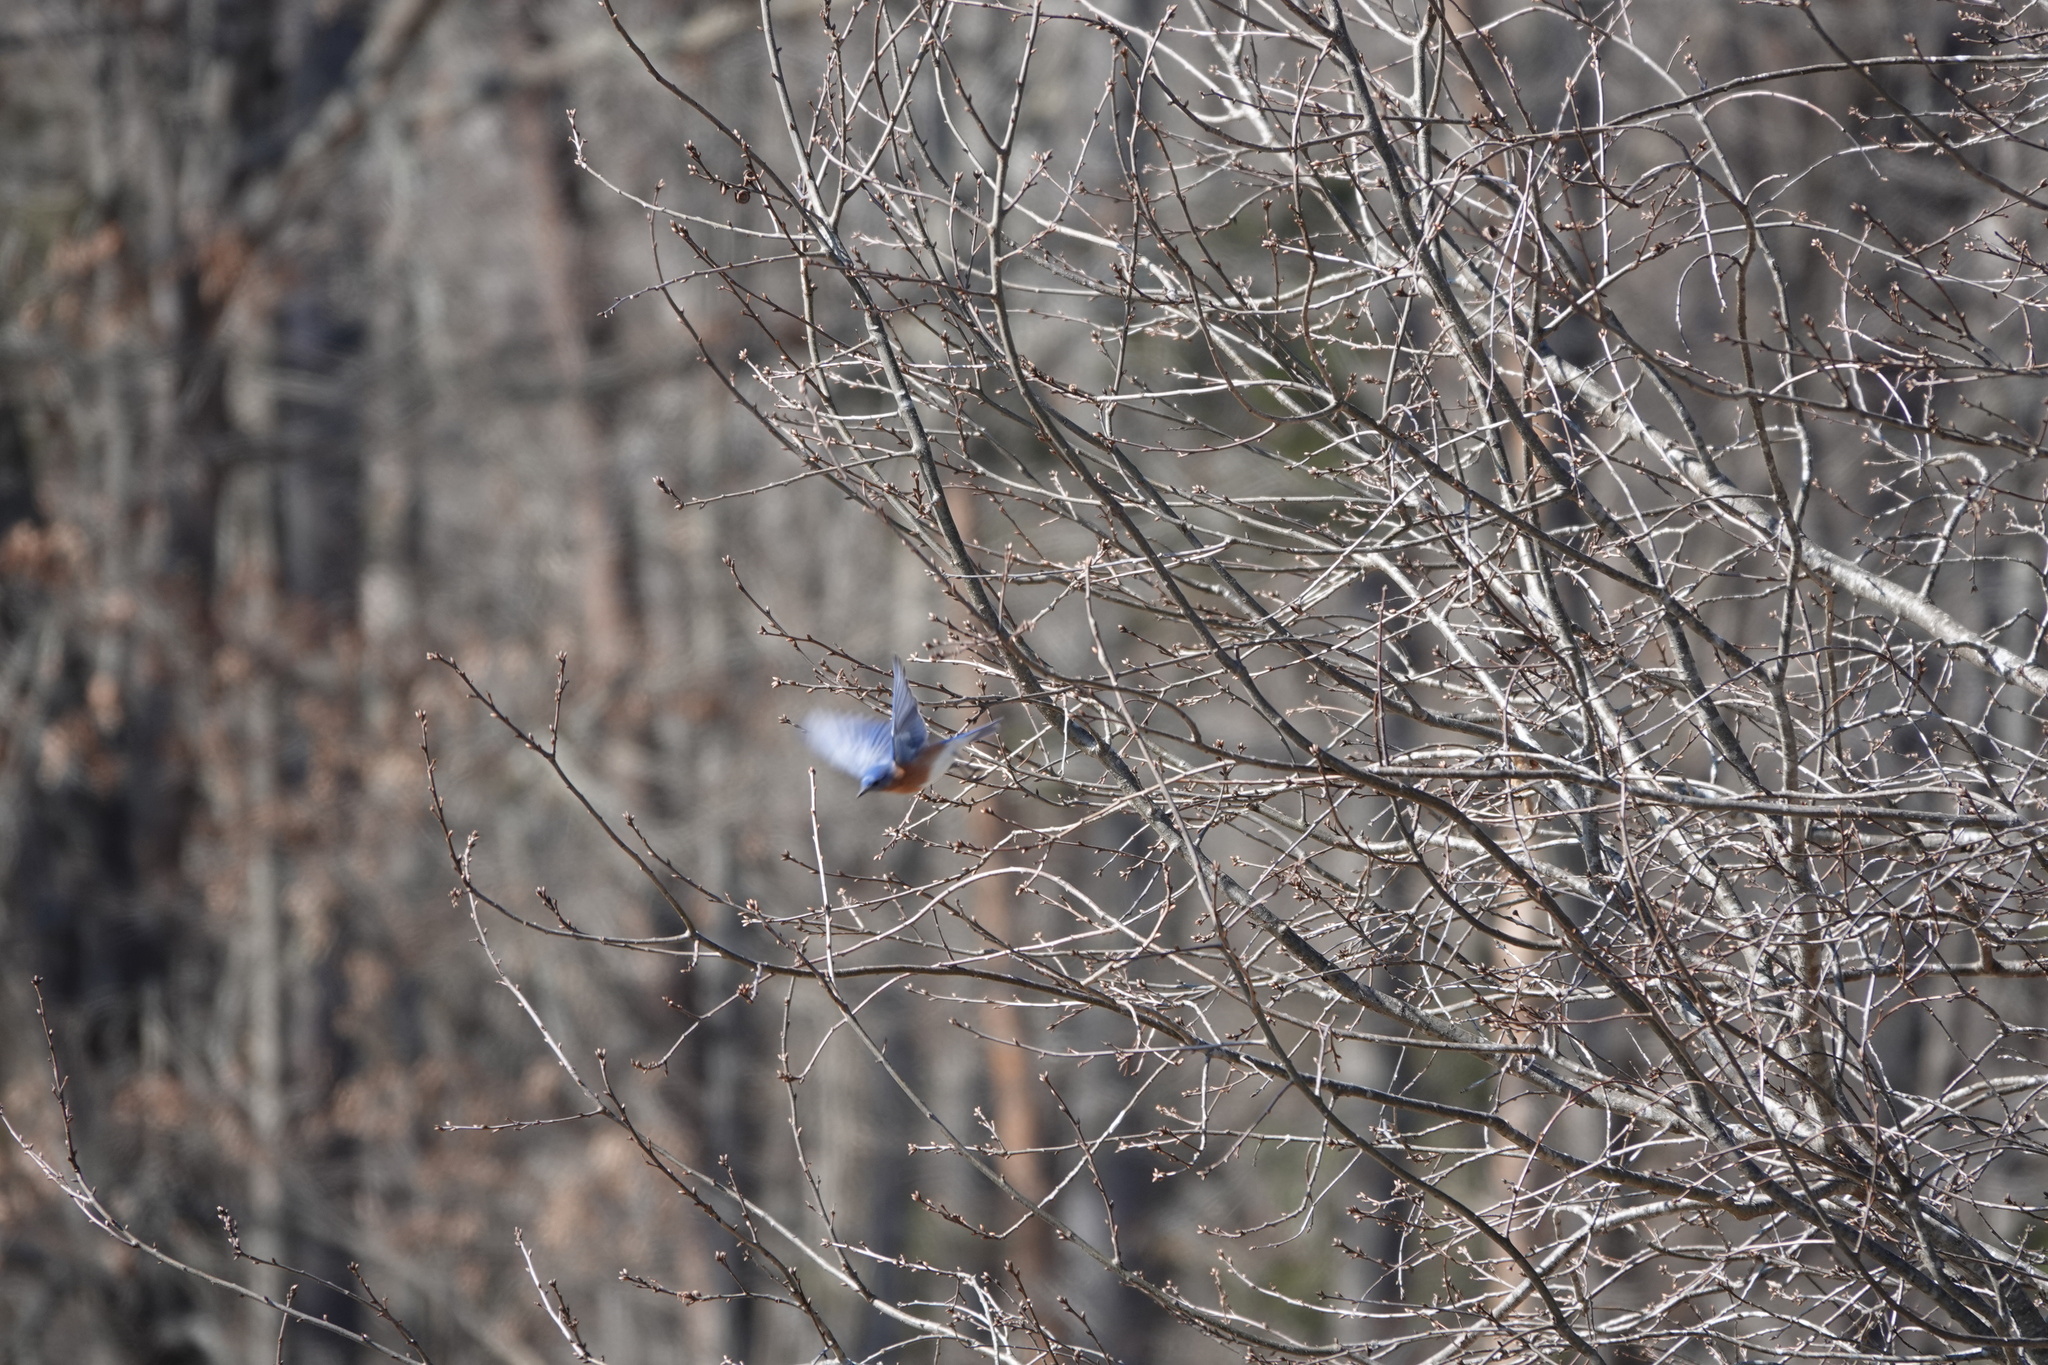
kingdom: Animalia
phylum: Chordata
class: Aves
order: Passeriformes
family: Turdidae
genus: Sialia
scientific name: Sialia sialis
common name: Eastern bluebird
